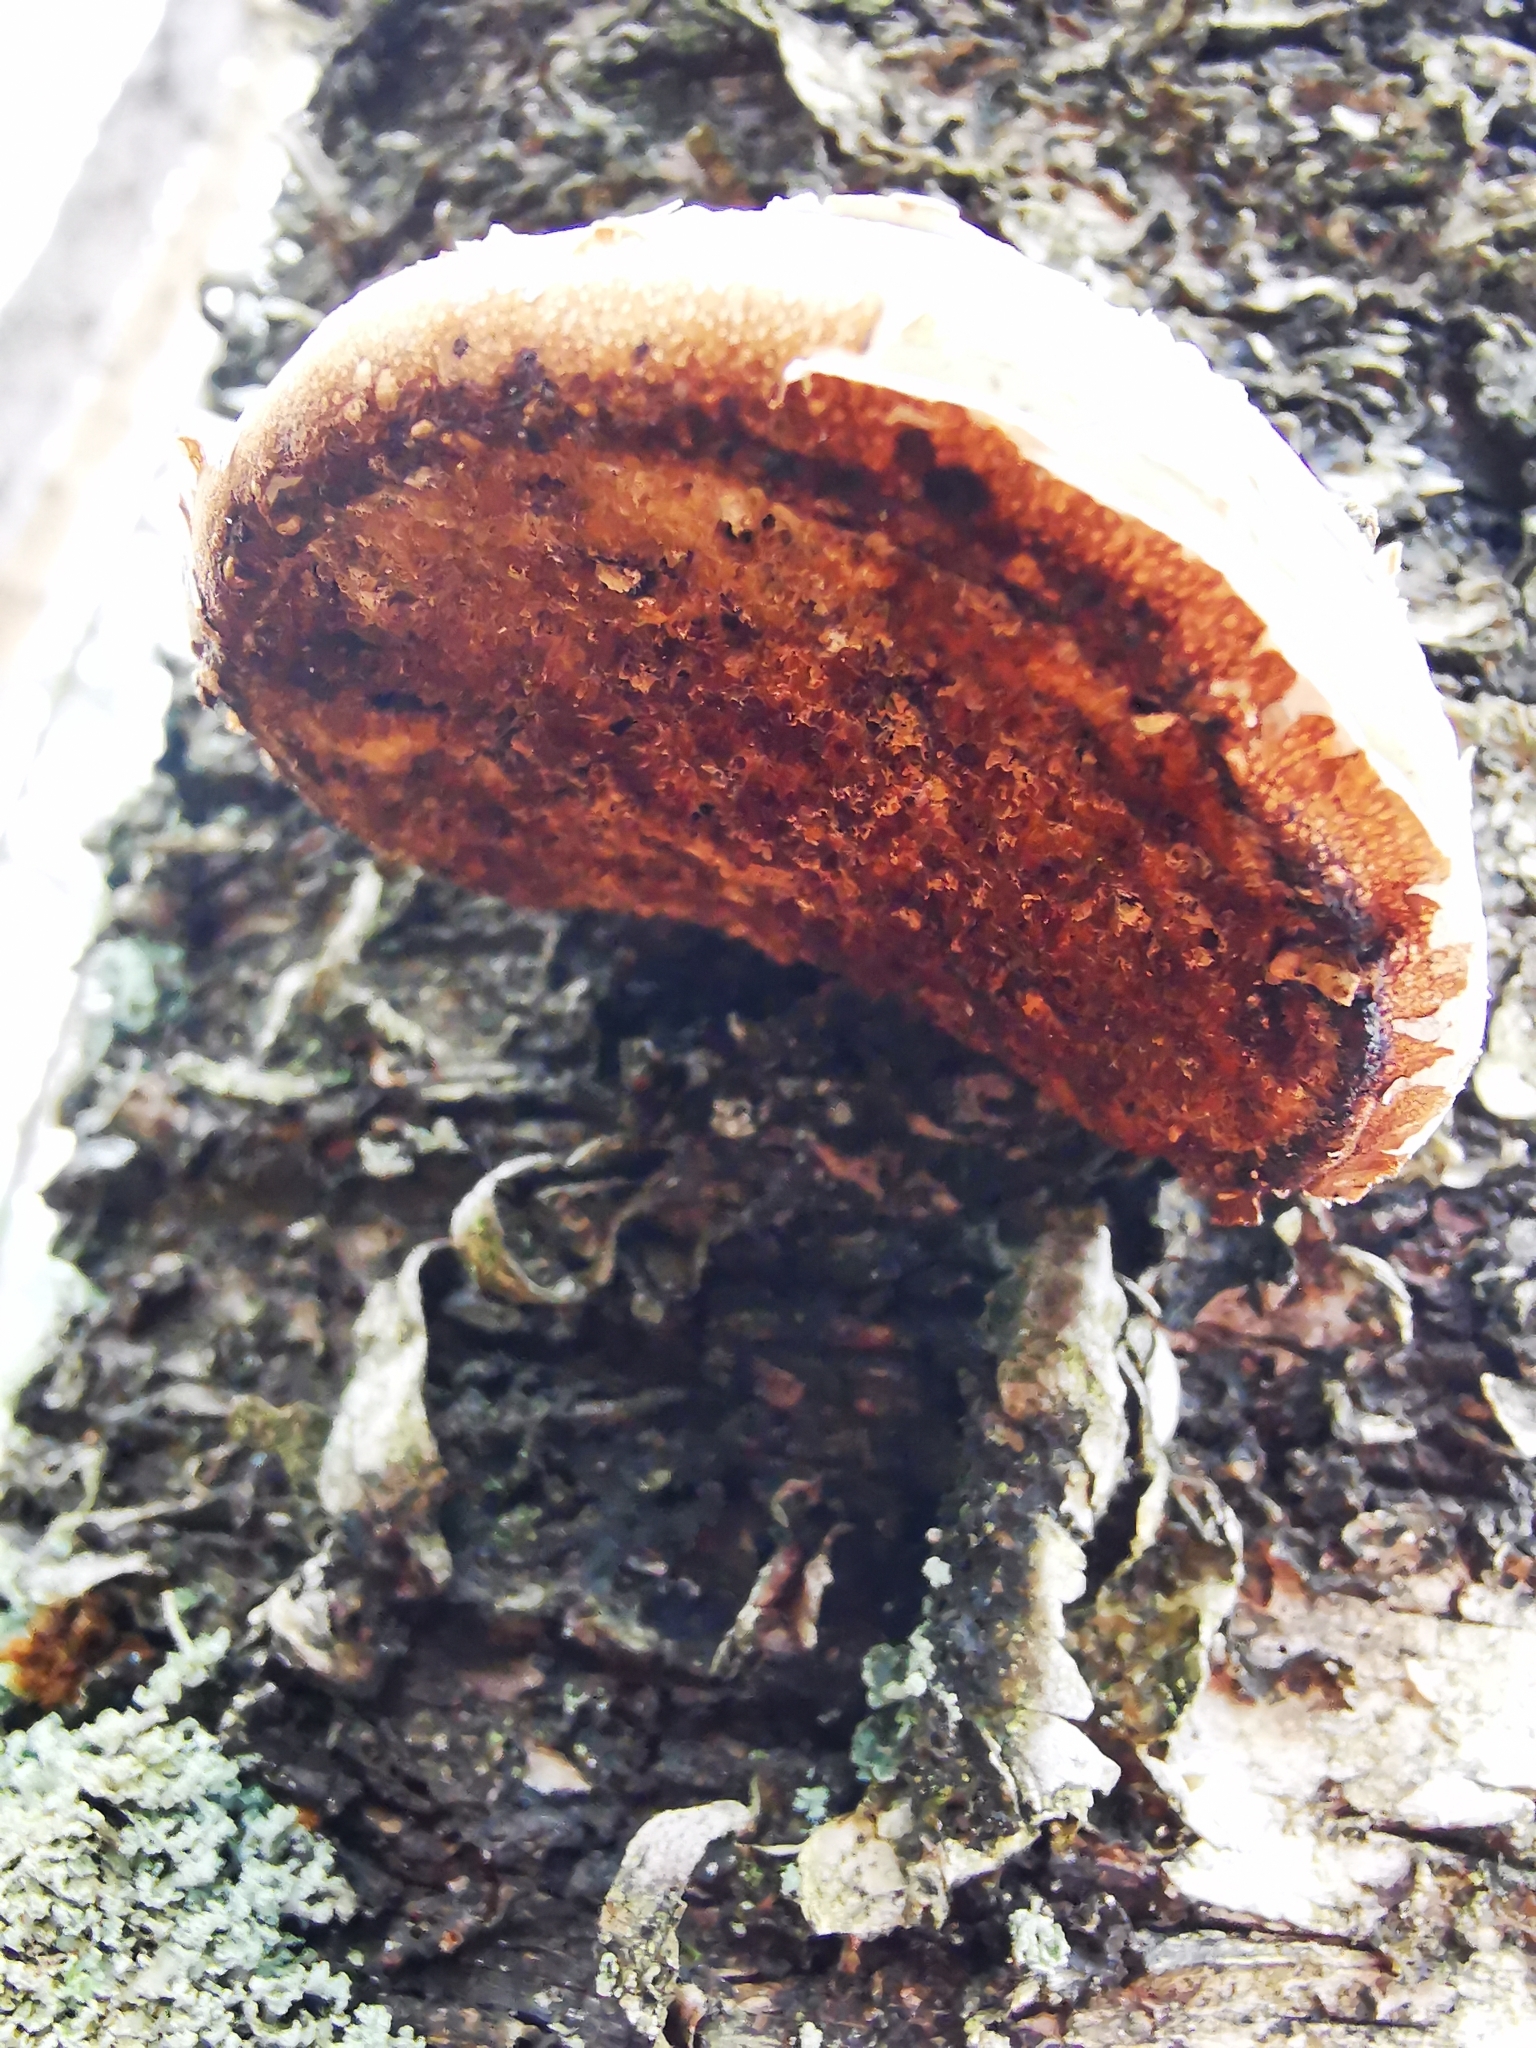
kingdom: Fungi
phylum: Basidiomycota
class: Agaricomycetes
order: Polyporales
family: Fomitopsidaceae
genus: Fomitopsis
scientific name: Fomitopsis betulina
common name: Birch polypore
